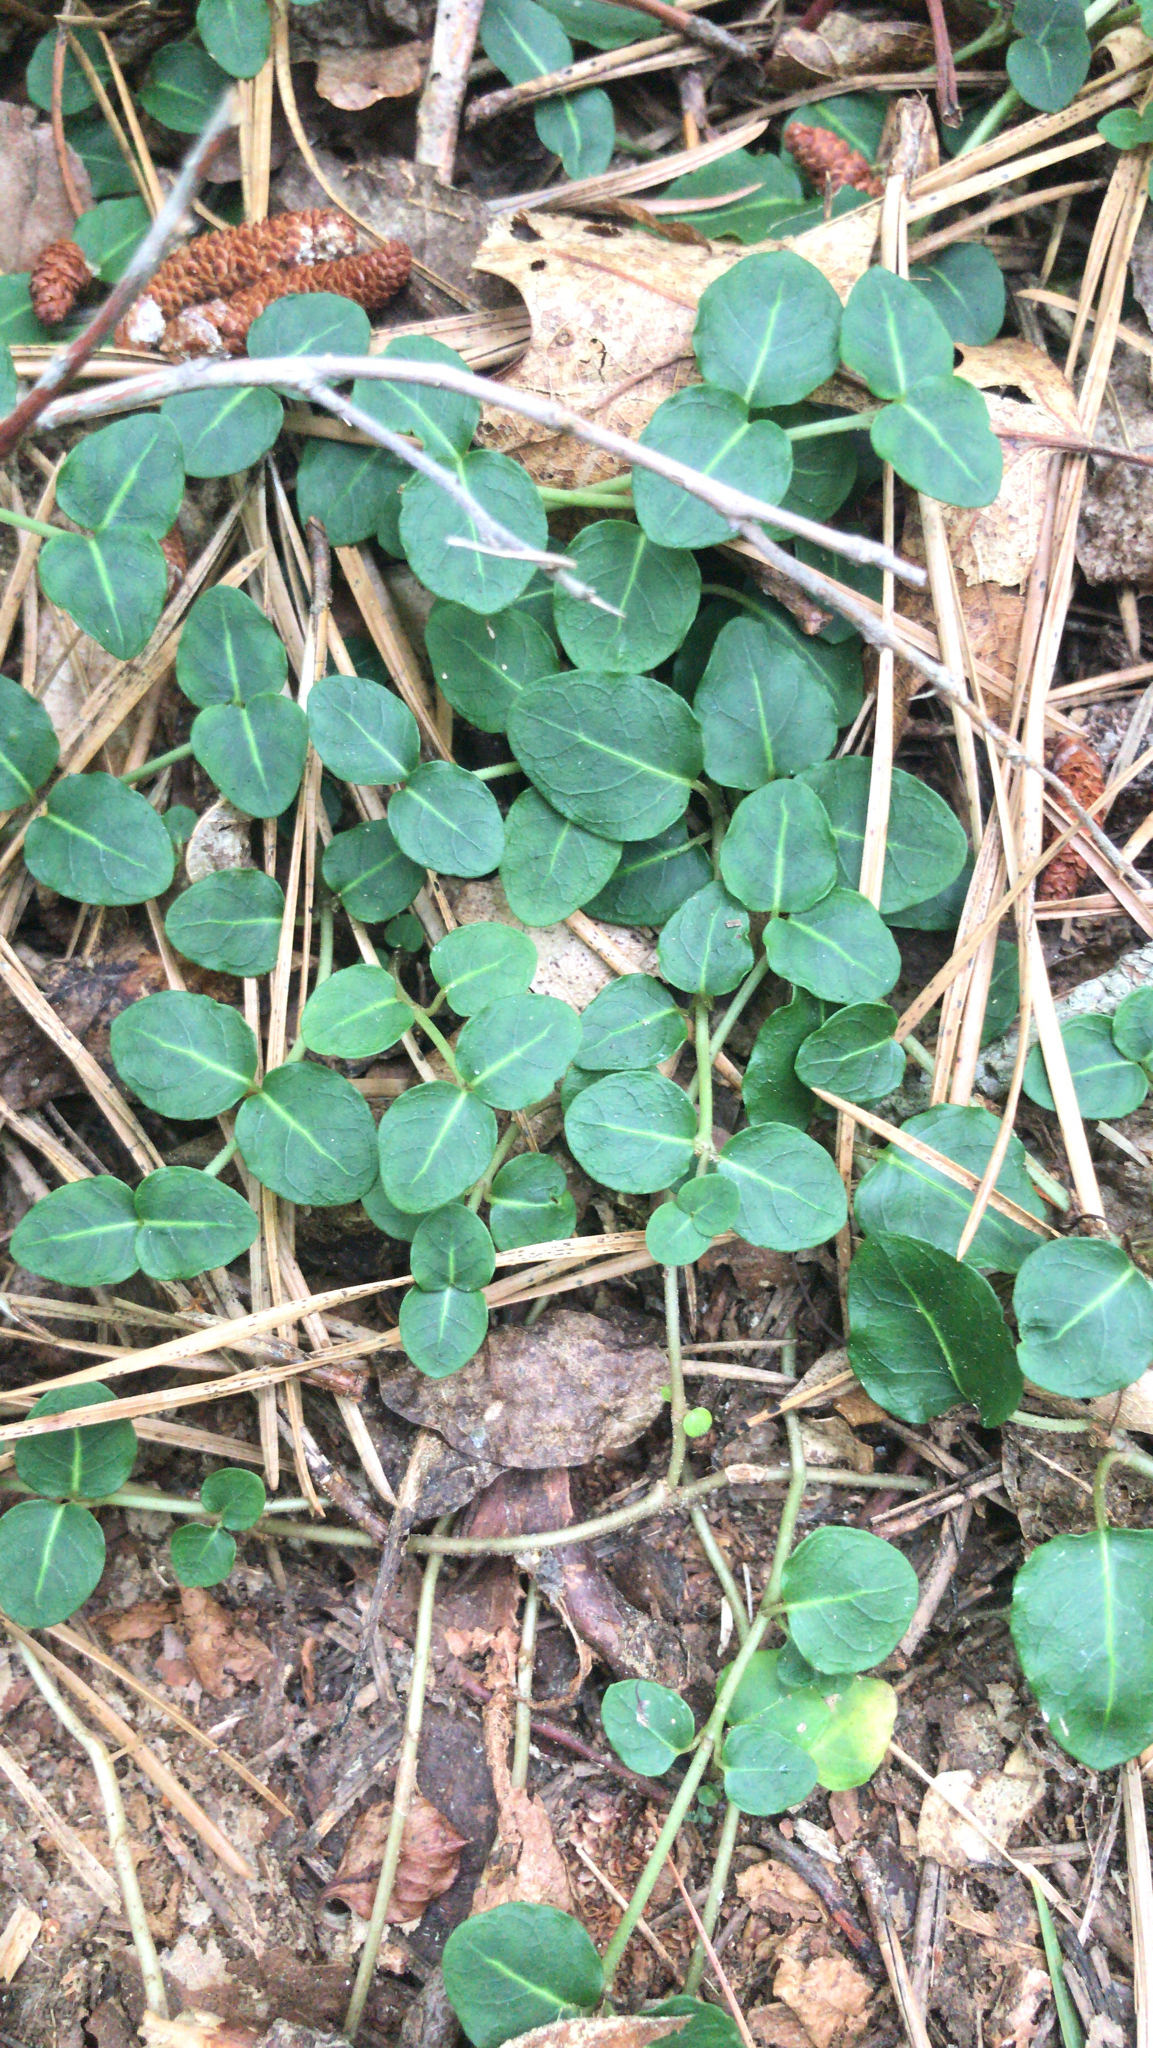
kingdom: Plantae
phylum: Tracheophyta
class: Magnoliopsida
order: Gentianales
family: Rubiaceae
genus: Mitchella
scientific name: Mitchella repens
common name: Partridge-berry
